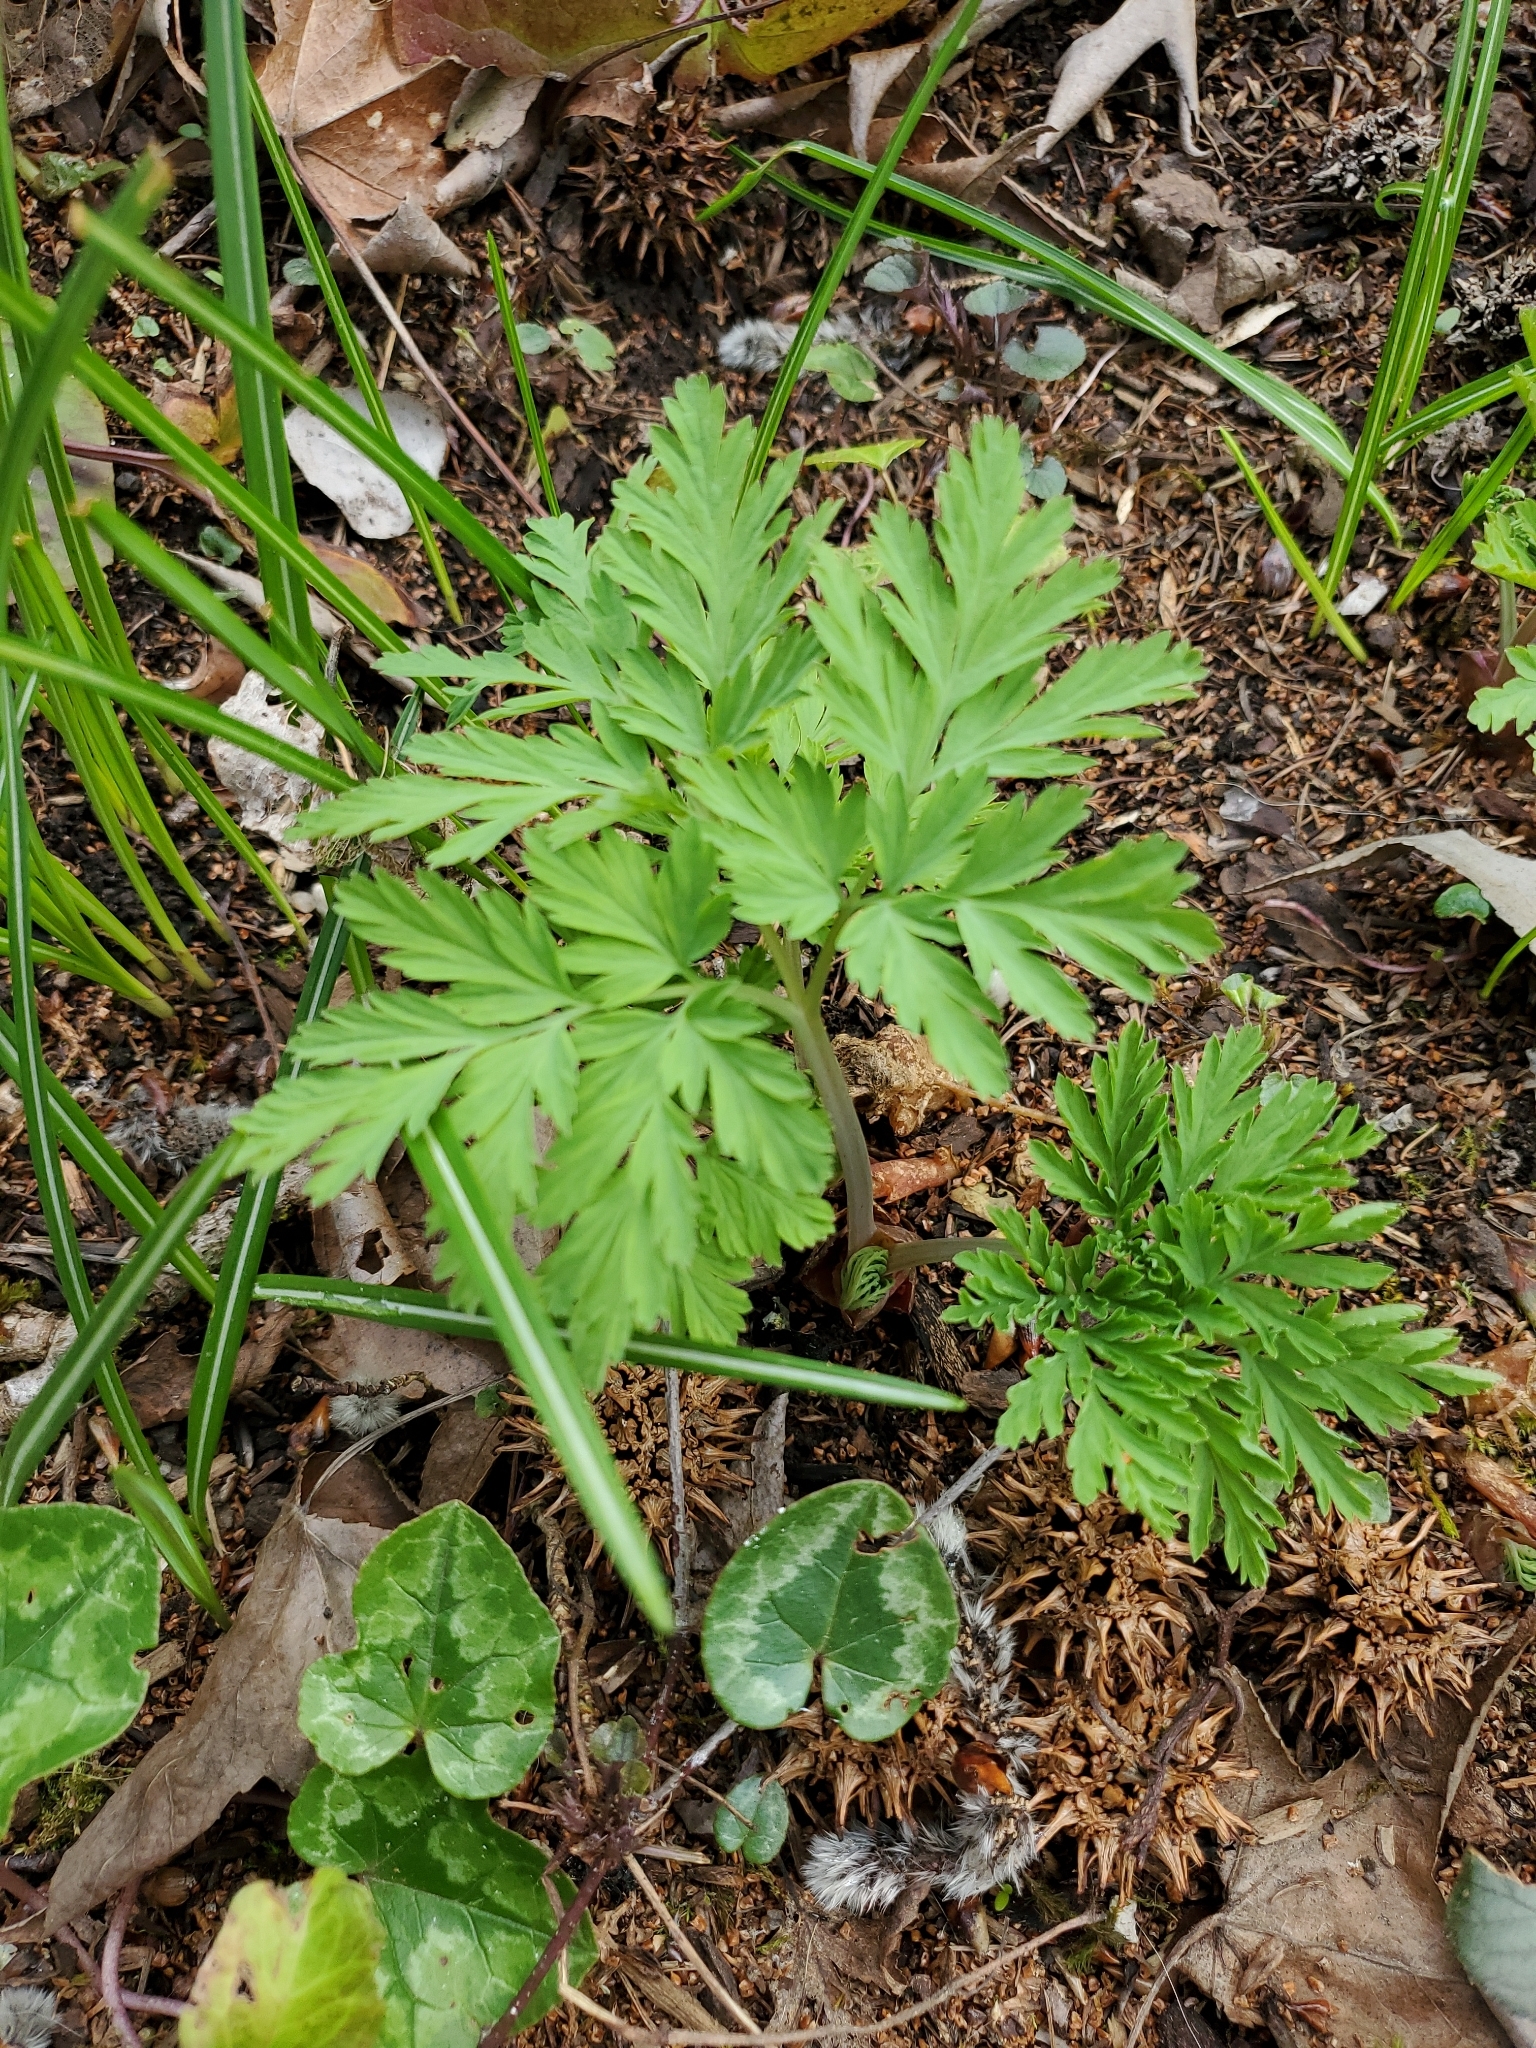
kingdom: Plantae
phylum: Tracheophyta
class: Magnoliopsida
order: Ranunculales
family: Papaveraceae
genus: Dicentra
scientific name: Dicentra formosa
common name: Bleeding-heart
